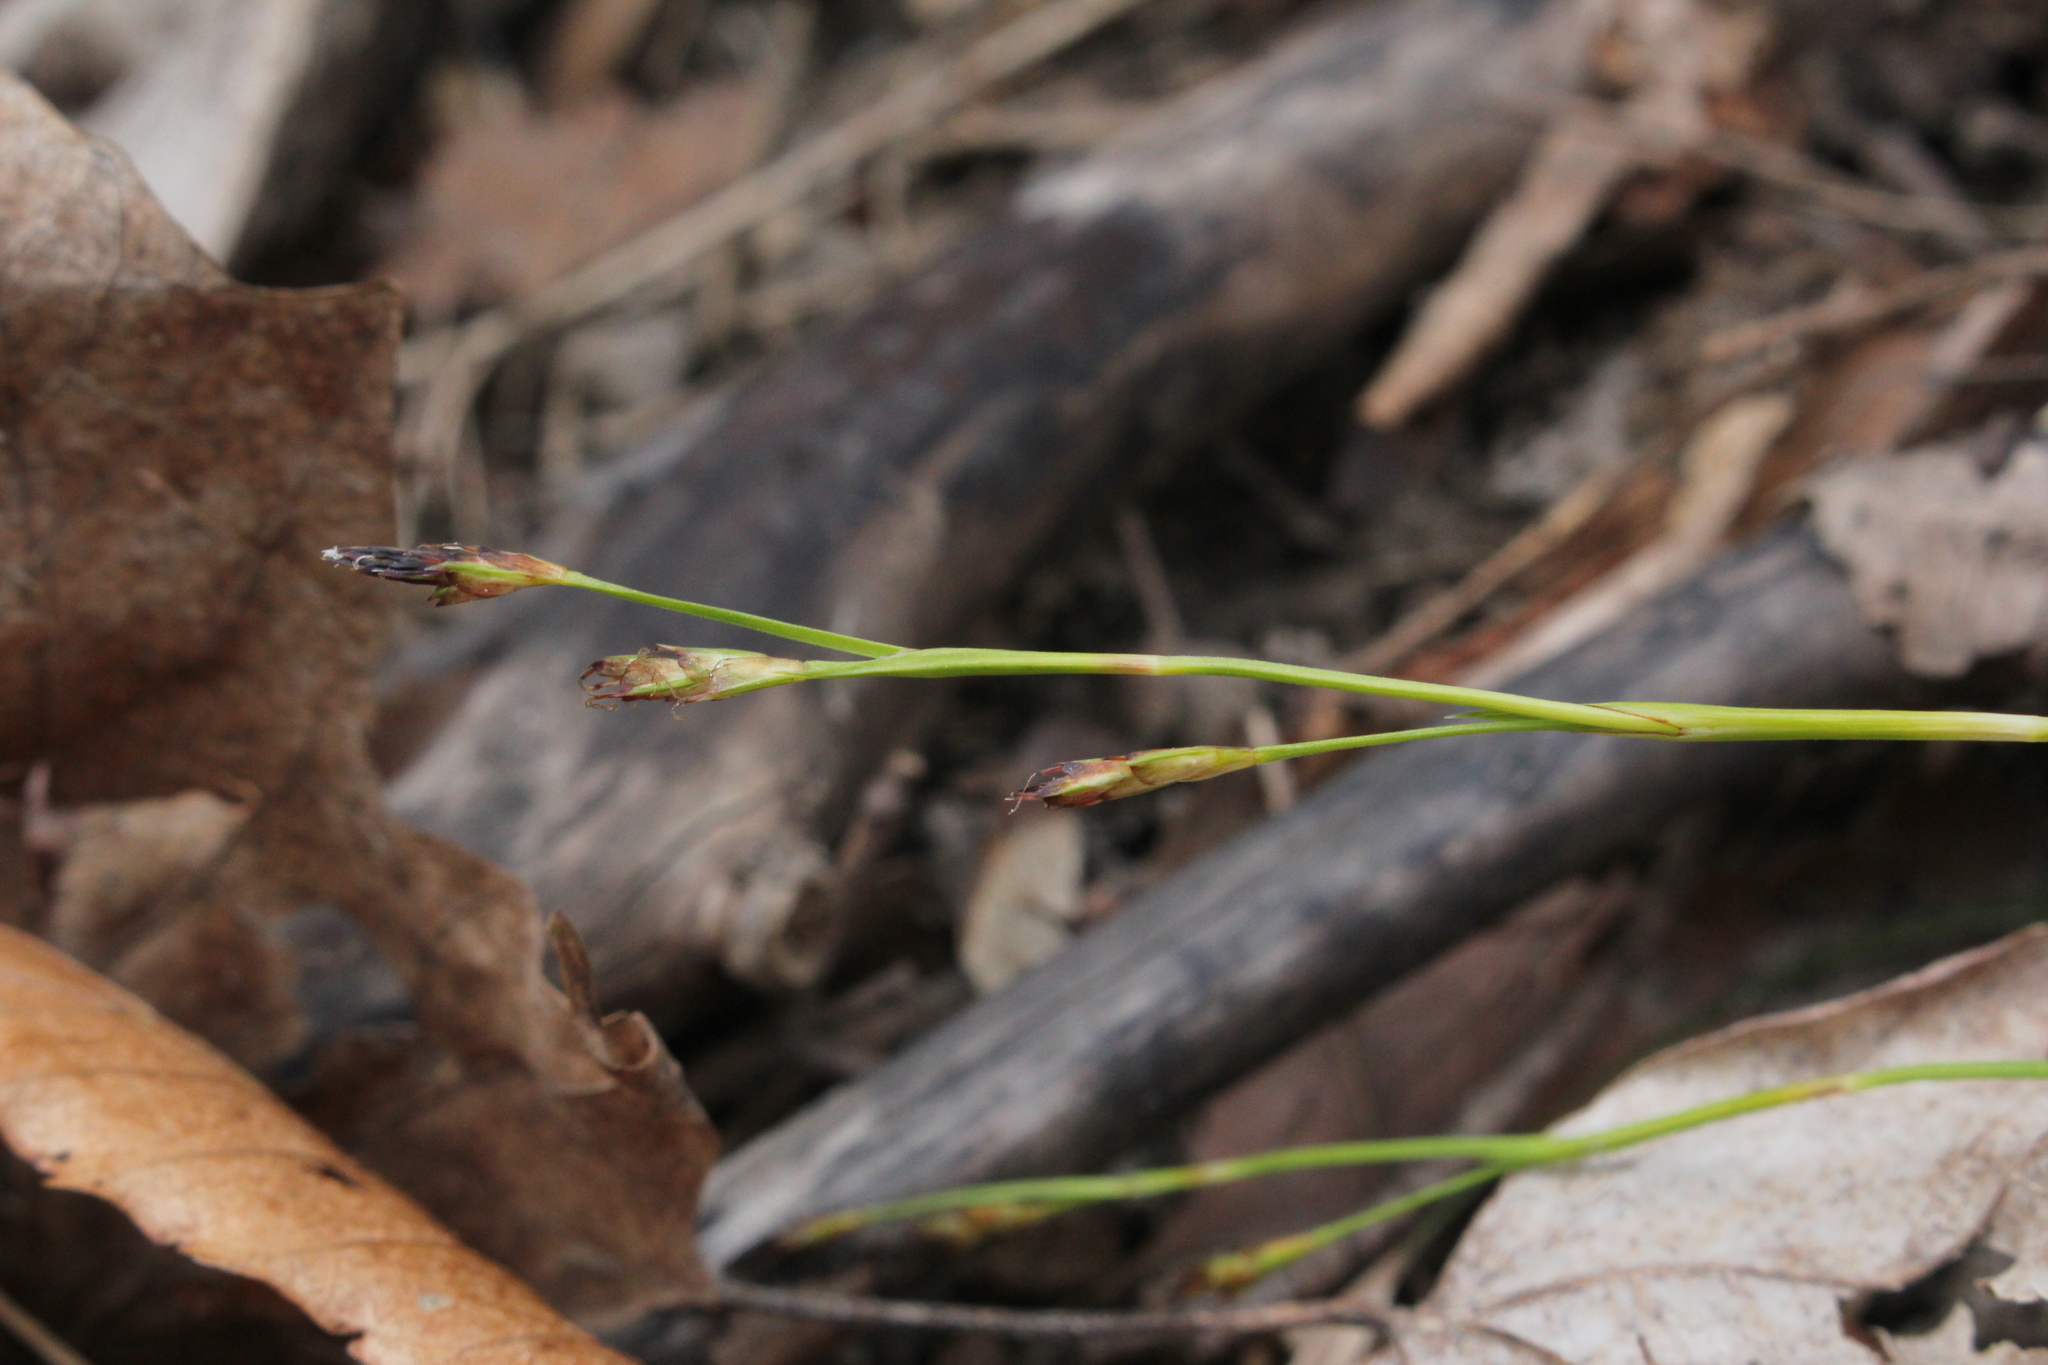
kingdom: Plantae
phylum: Tracheophyta
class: Liliopsida
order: Poales
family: Cyperaceae
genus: Carex
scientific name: Carex pedunculata
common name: Pedunculate sedge
